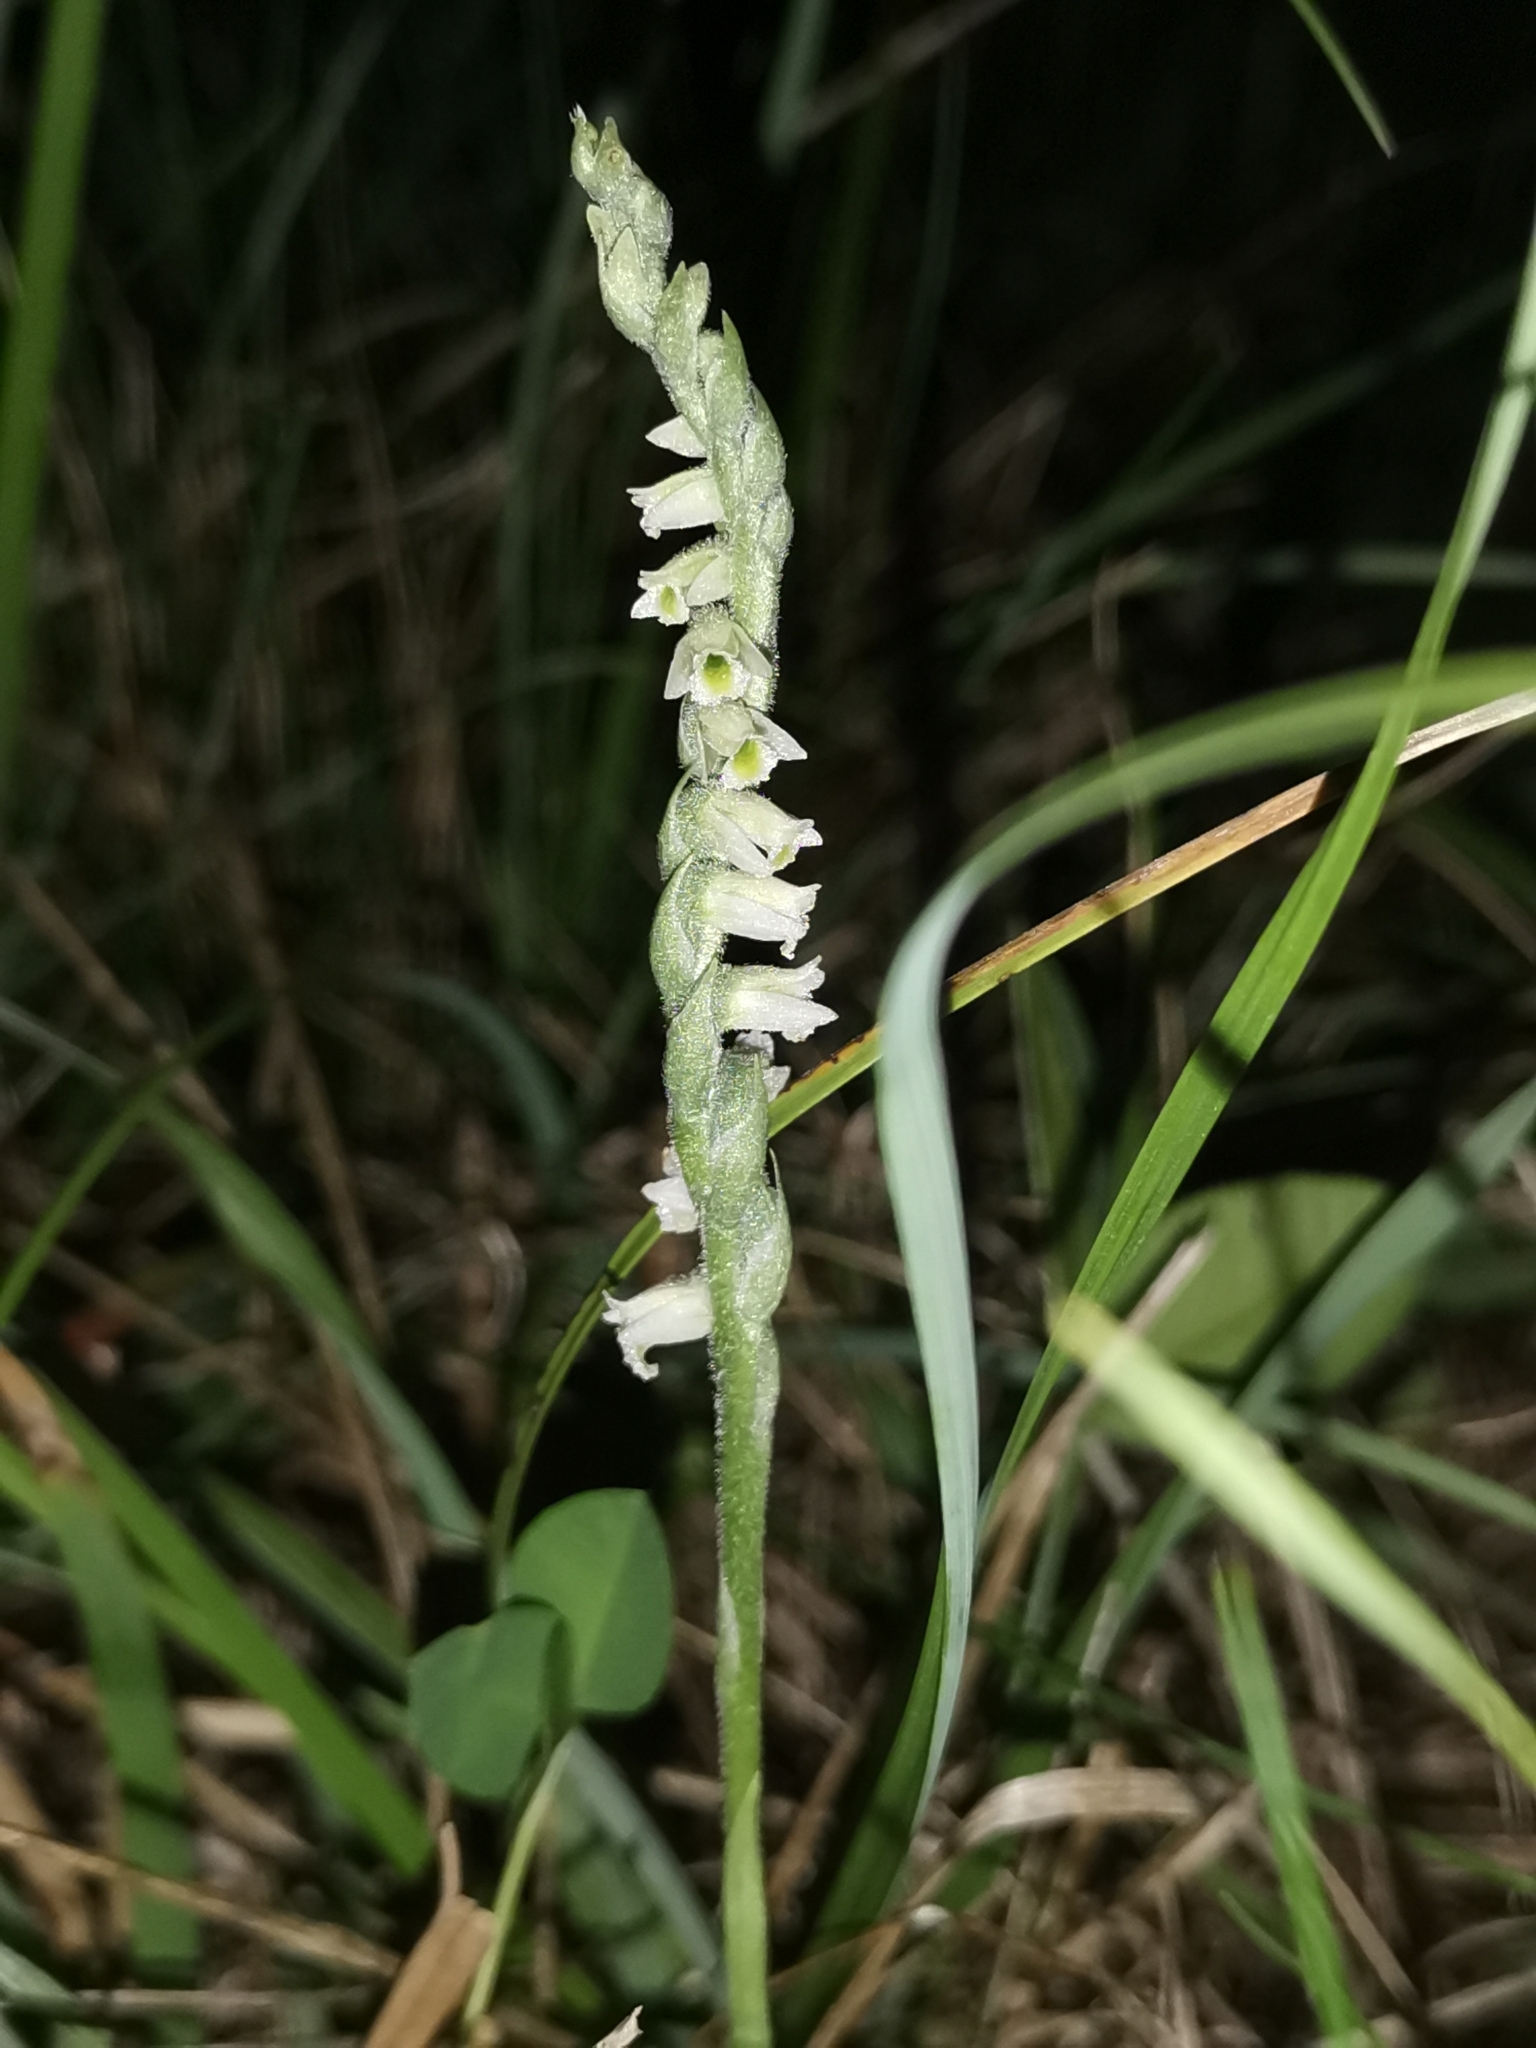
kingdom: Plantae
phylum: Tracheophyta
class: Liliopsida
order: Asparagales
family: Orchidaceae
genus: Spiranthes
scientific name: Spiranthes spiralis
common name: Autumn lady's-tresses
